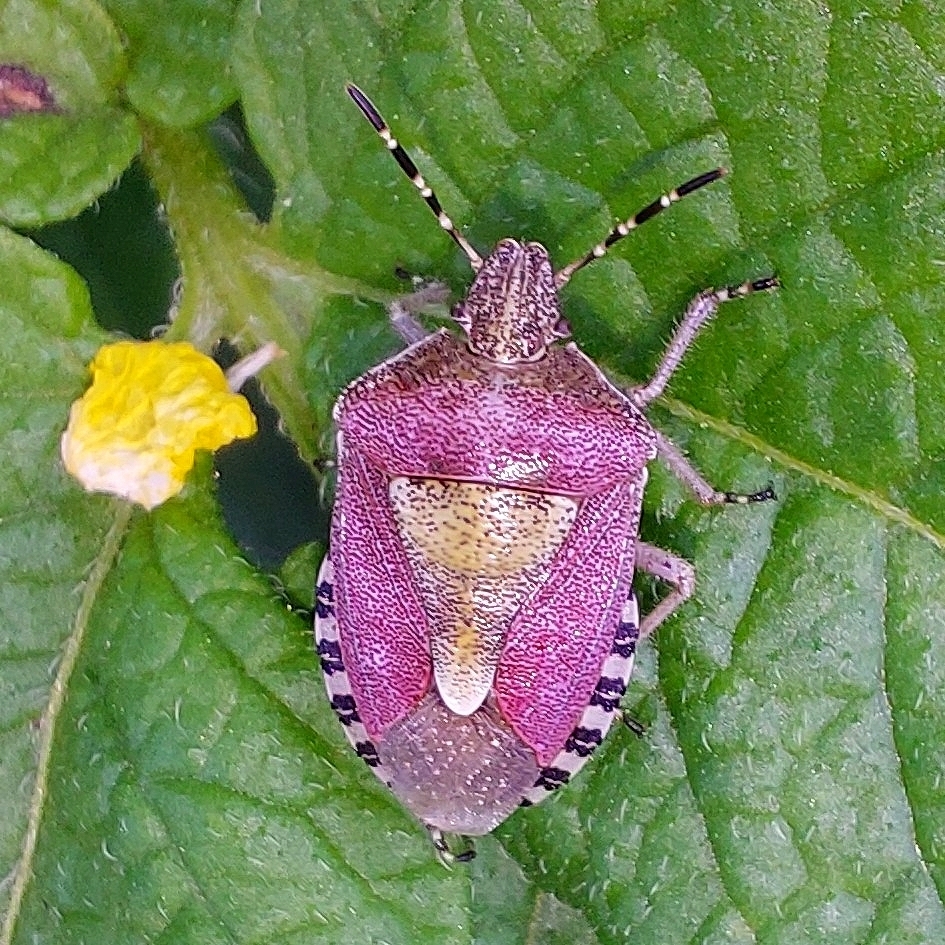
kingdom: Animalia
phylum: Arthropoda
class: Insecta
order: Hemiptera
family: Pentatomidae
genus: Dolycoris
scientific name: Dolycoris baccarum
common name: Sloe bug
